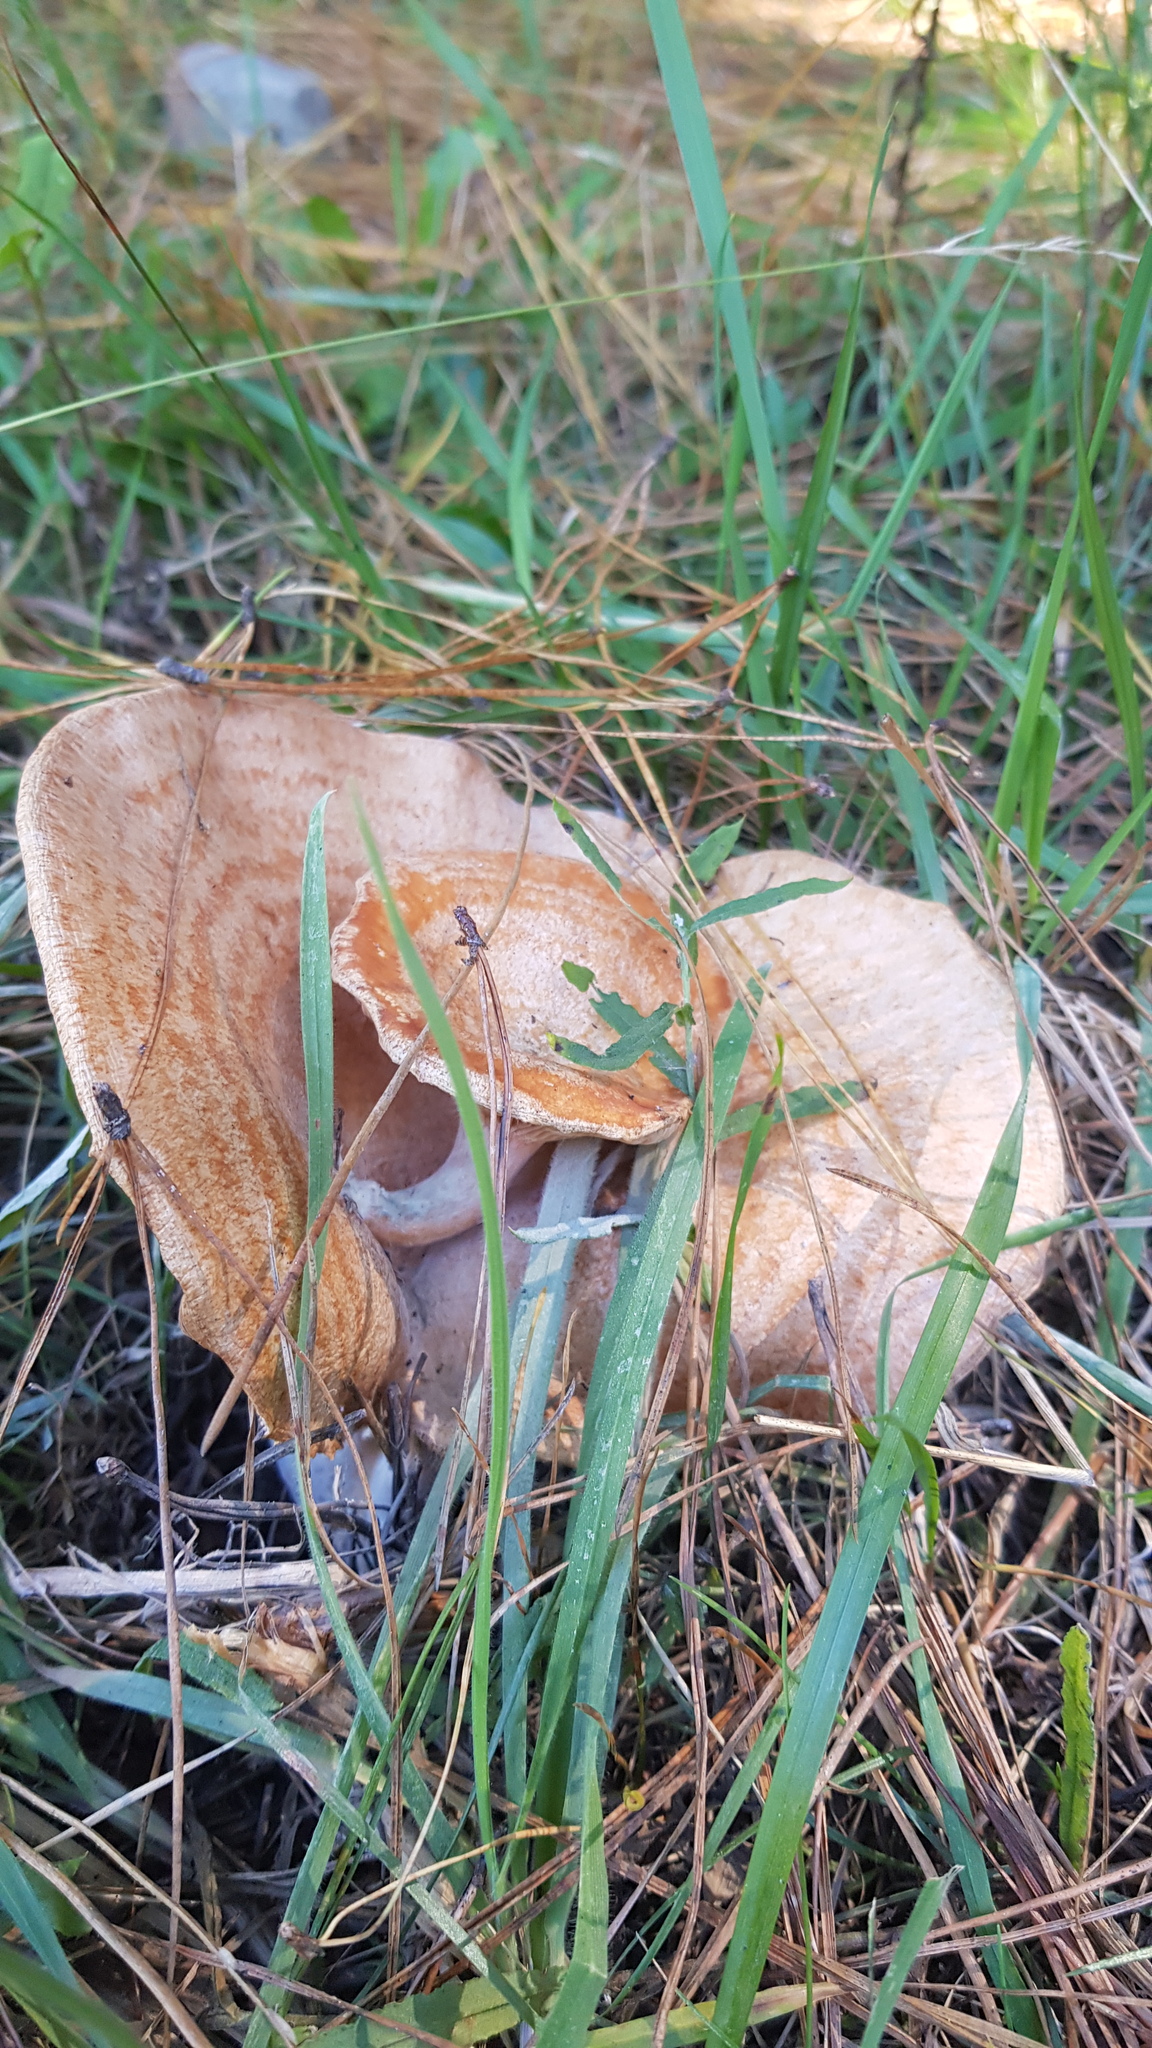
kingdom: Fungi
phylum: Basidiomycota
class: Agaricomycetes
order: Russulales
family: Russulaceae
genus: Lactarius
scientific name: Lactarius deliciosus
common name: Saffron milk-cap
